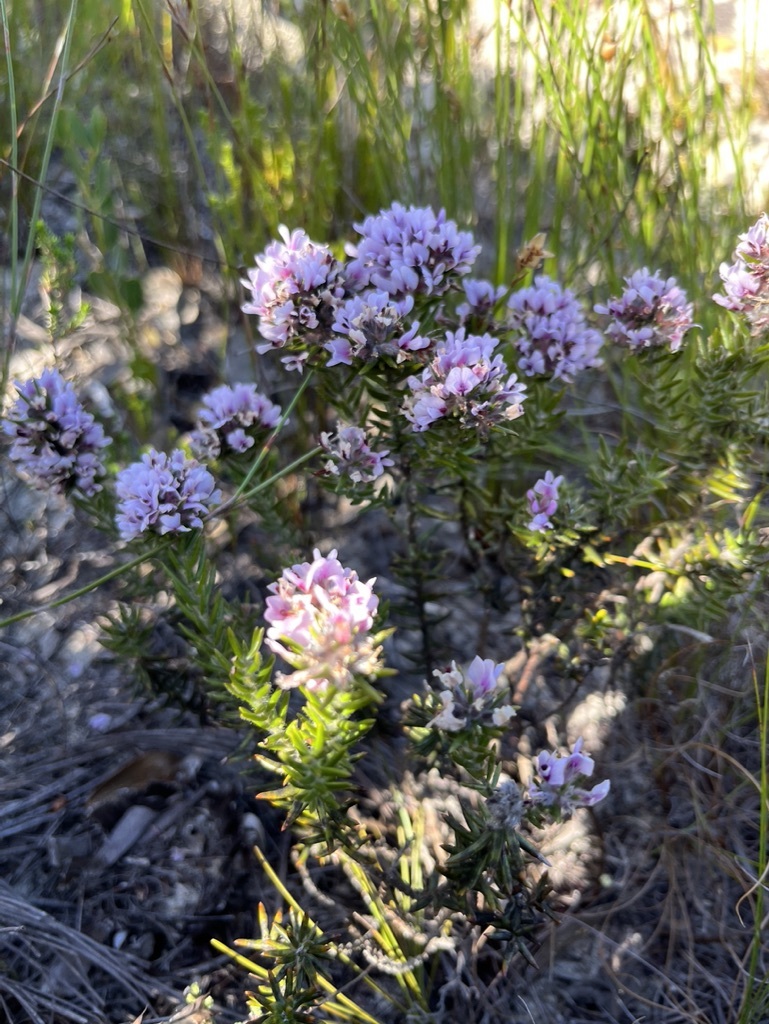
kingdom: Plantae
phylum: Tracheophyta
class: Magnoliopsida
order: Fabales
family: Fabaceae
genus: Amphithalea
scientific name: Amphithalea ericifolia
